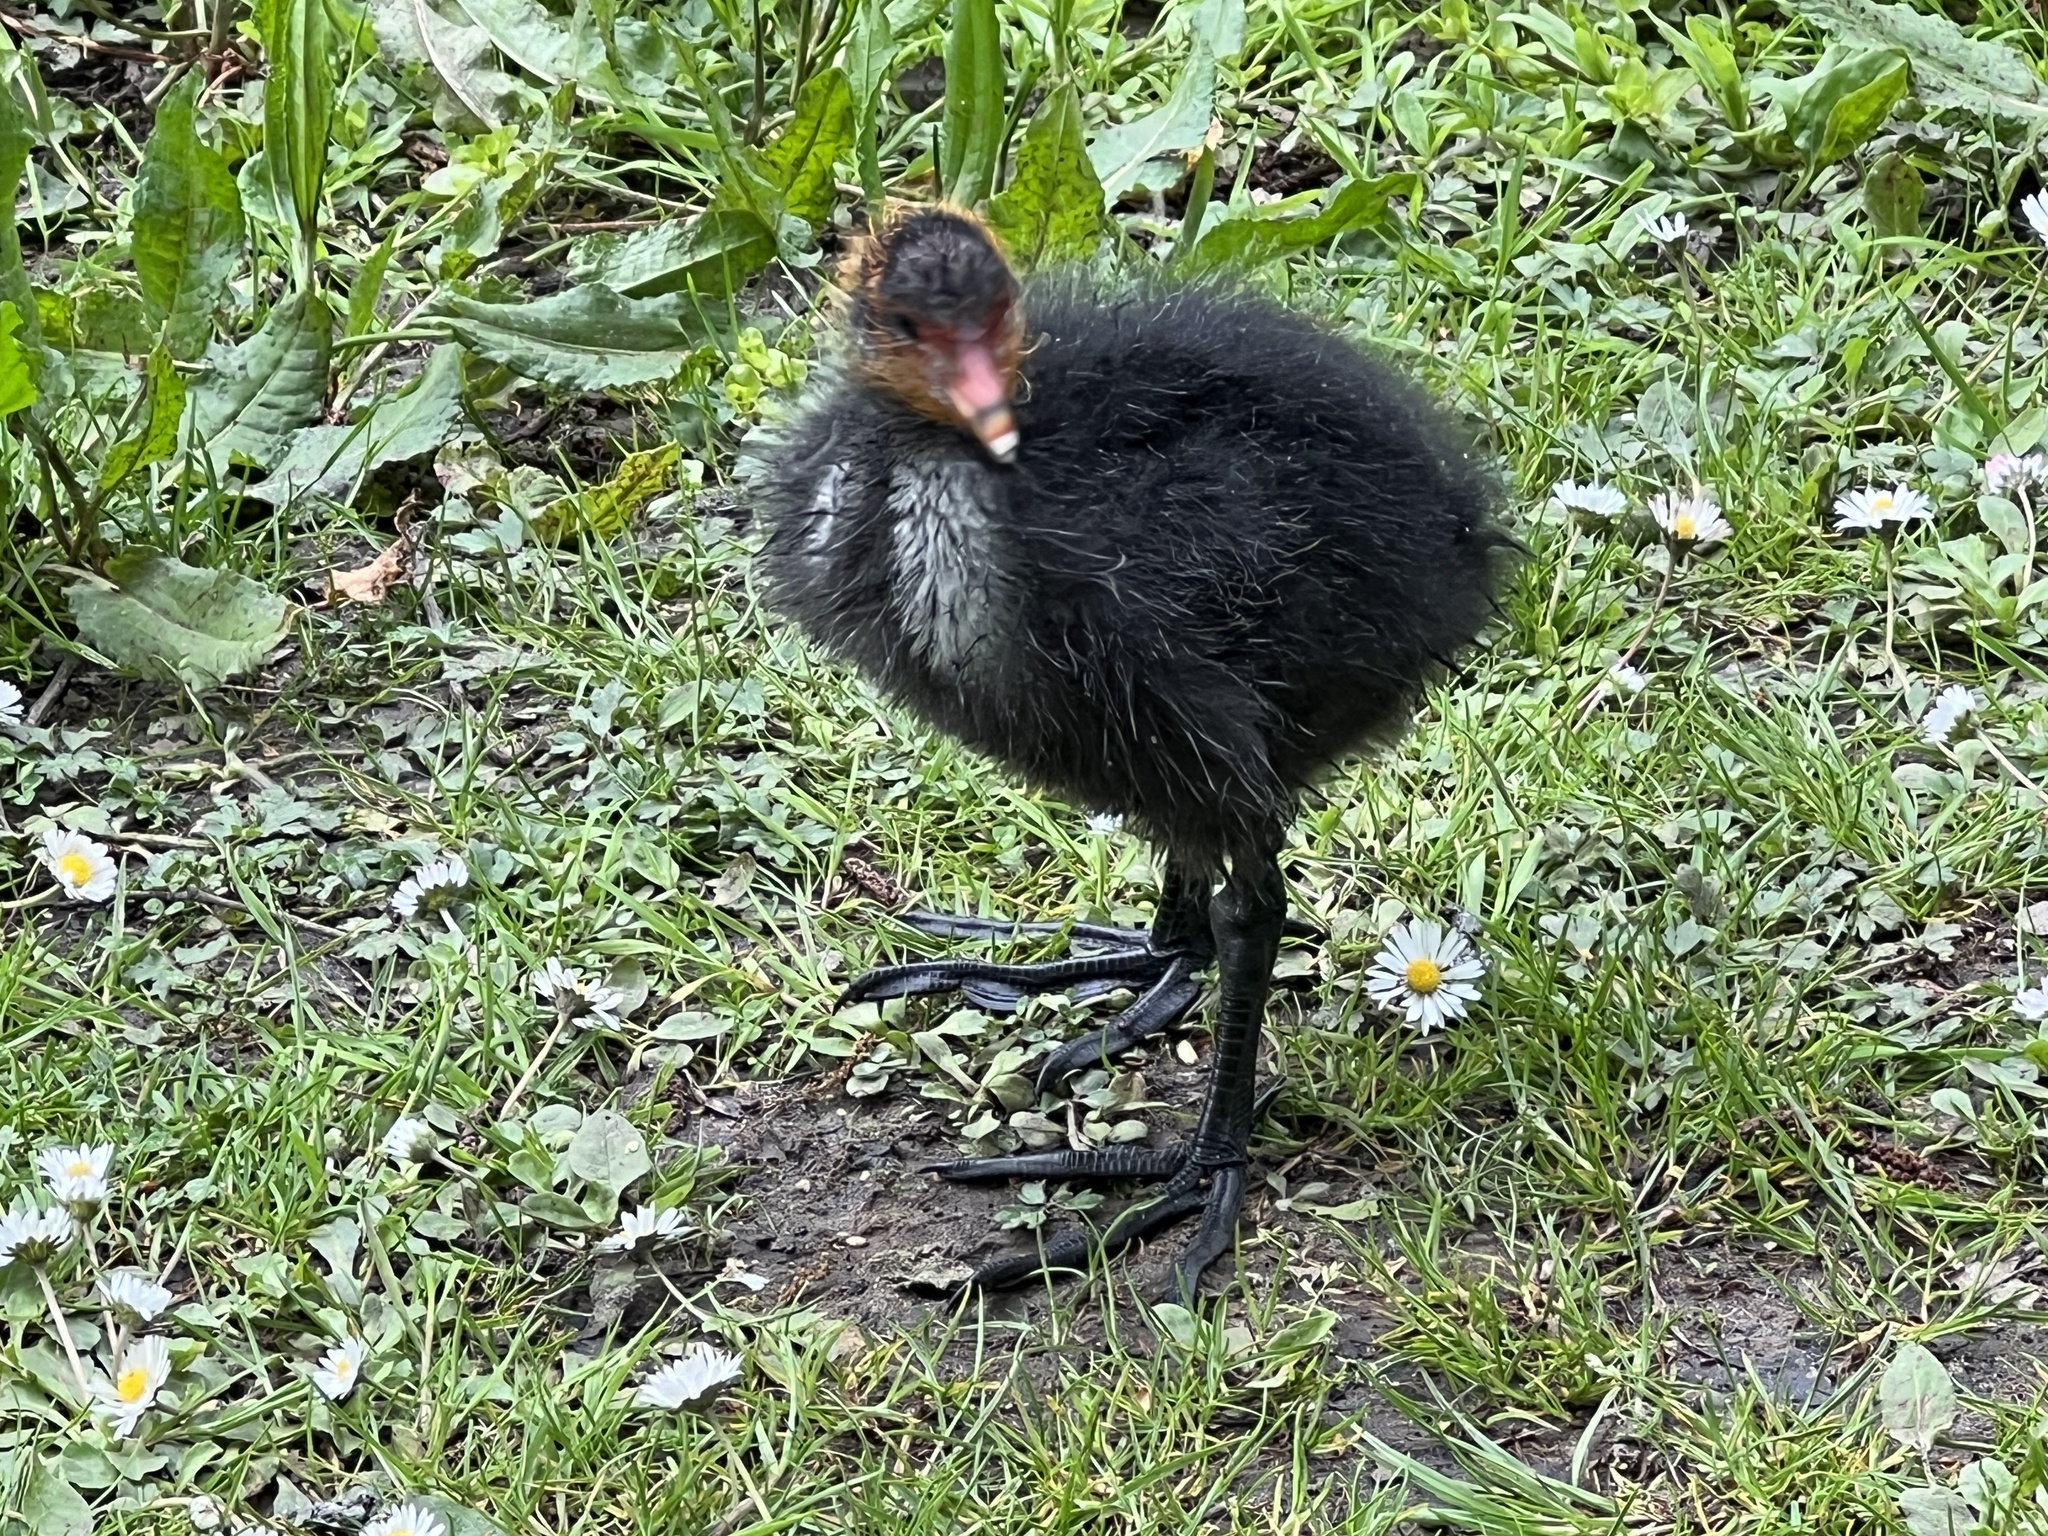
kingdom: Animalia
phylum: Chordata
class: Aves
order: Gruiformes
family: Rallidae
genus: Fulica
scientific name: Fulica atra
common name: Eurasian coot
